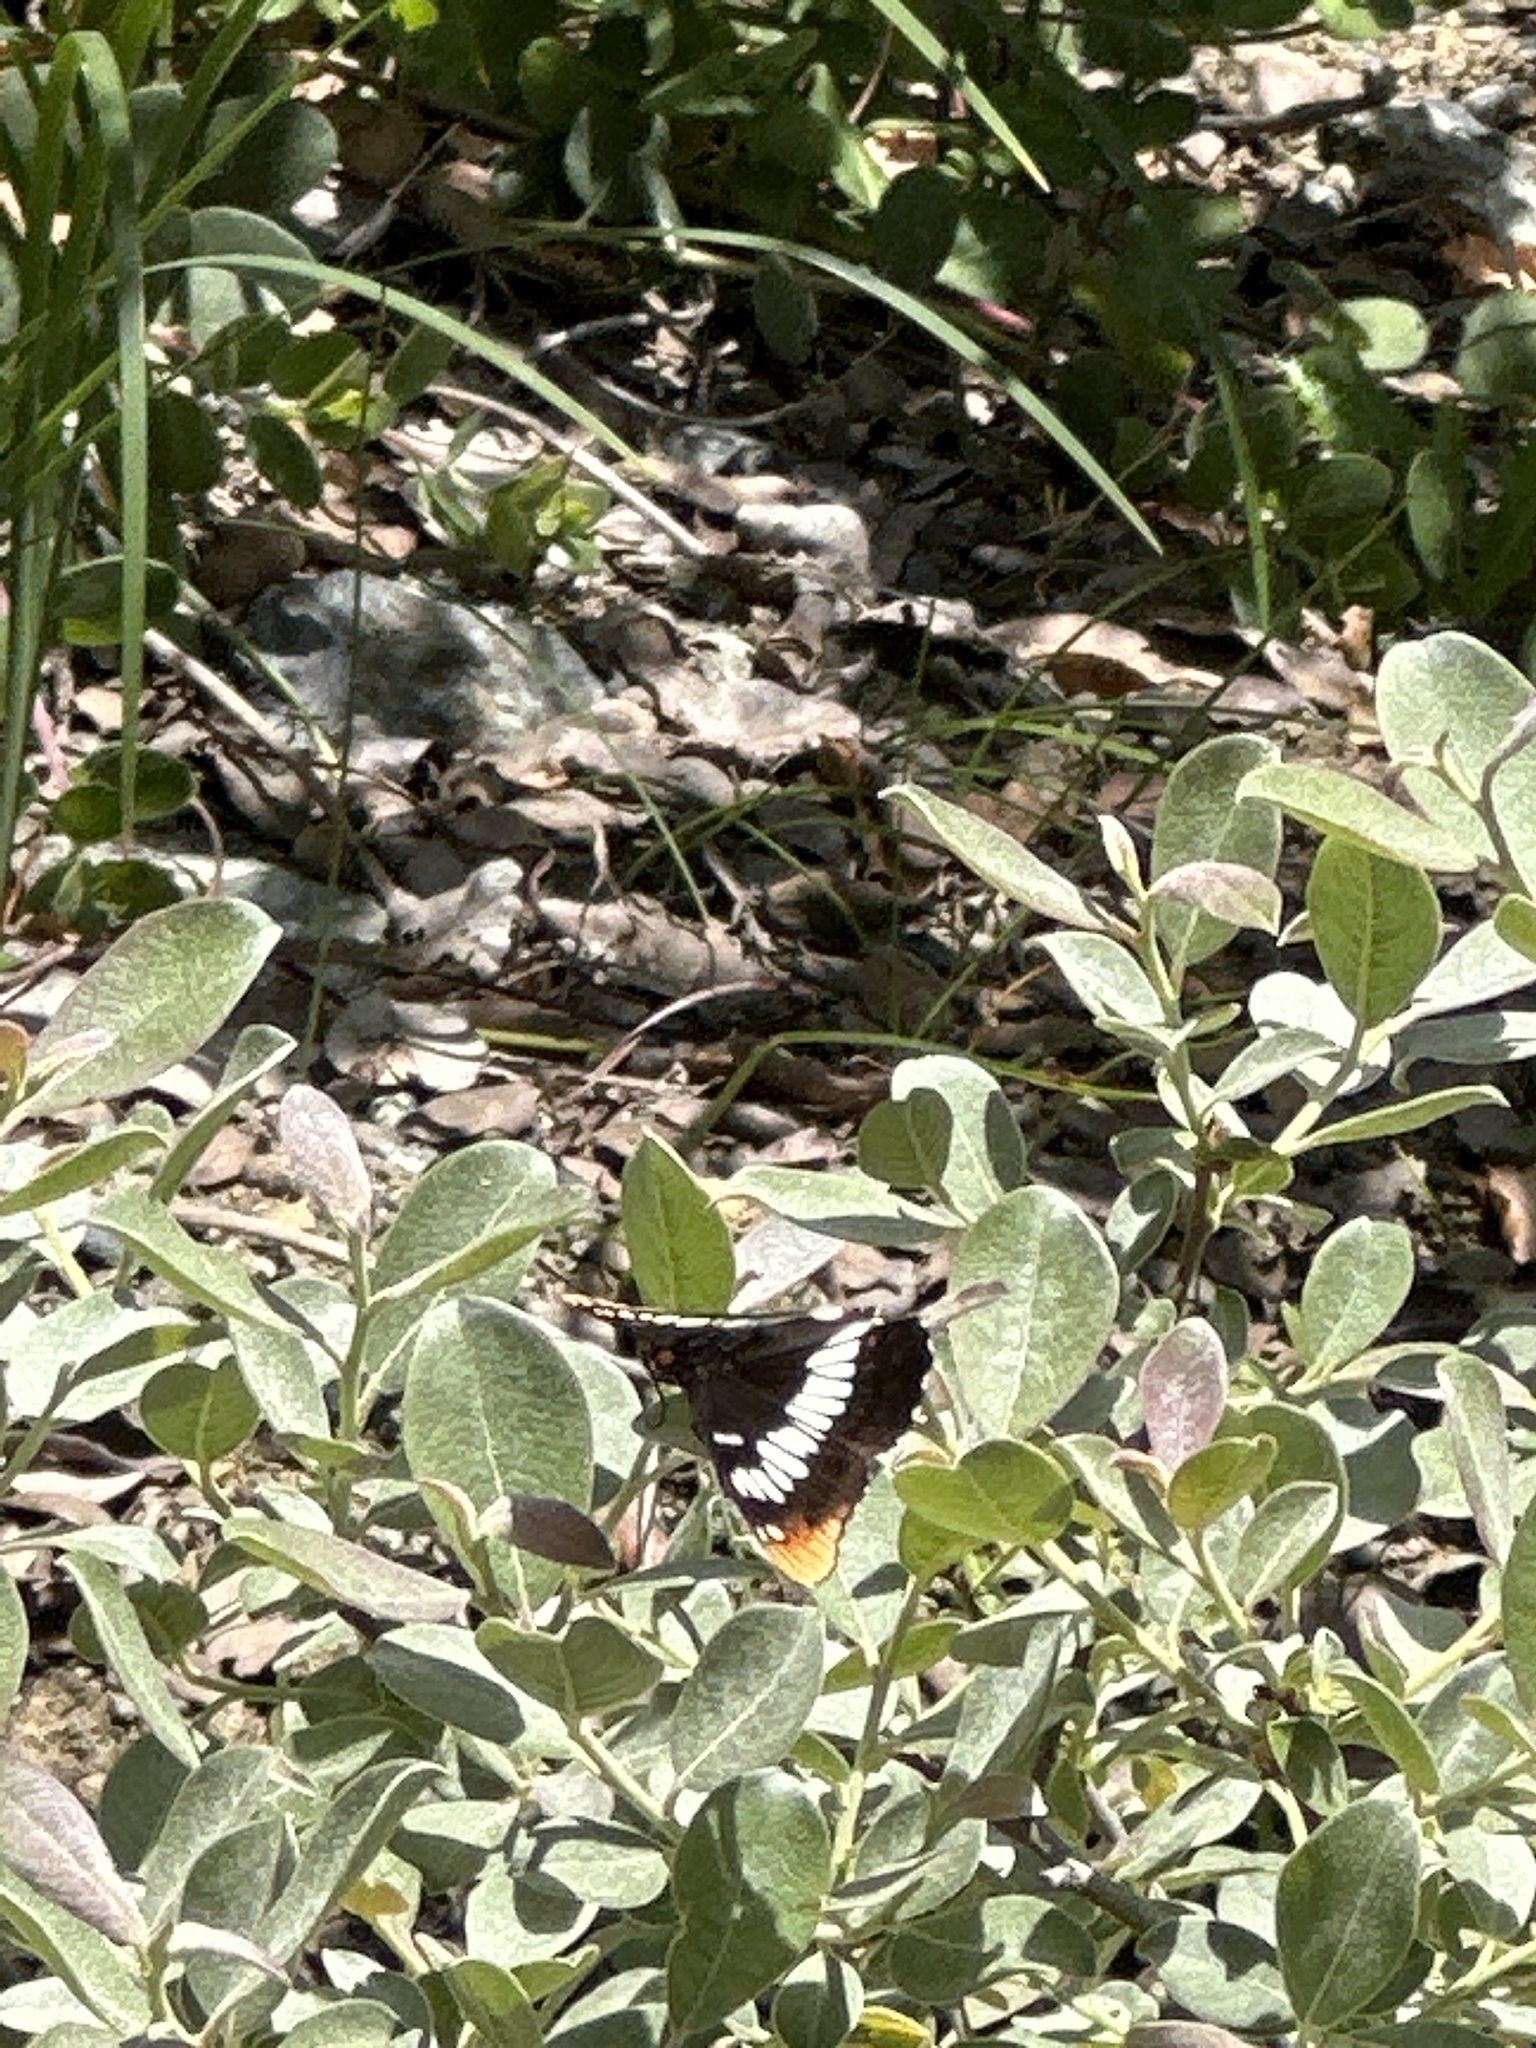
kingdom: Animalia
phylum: Arthropoda
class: Insecta
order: Lepidoptera
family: Nymphalidae
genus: Limenitis
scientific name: Limenitis lorquini
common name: Lorquin's admiral
